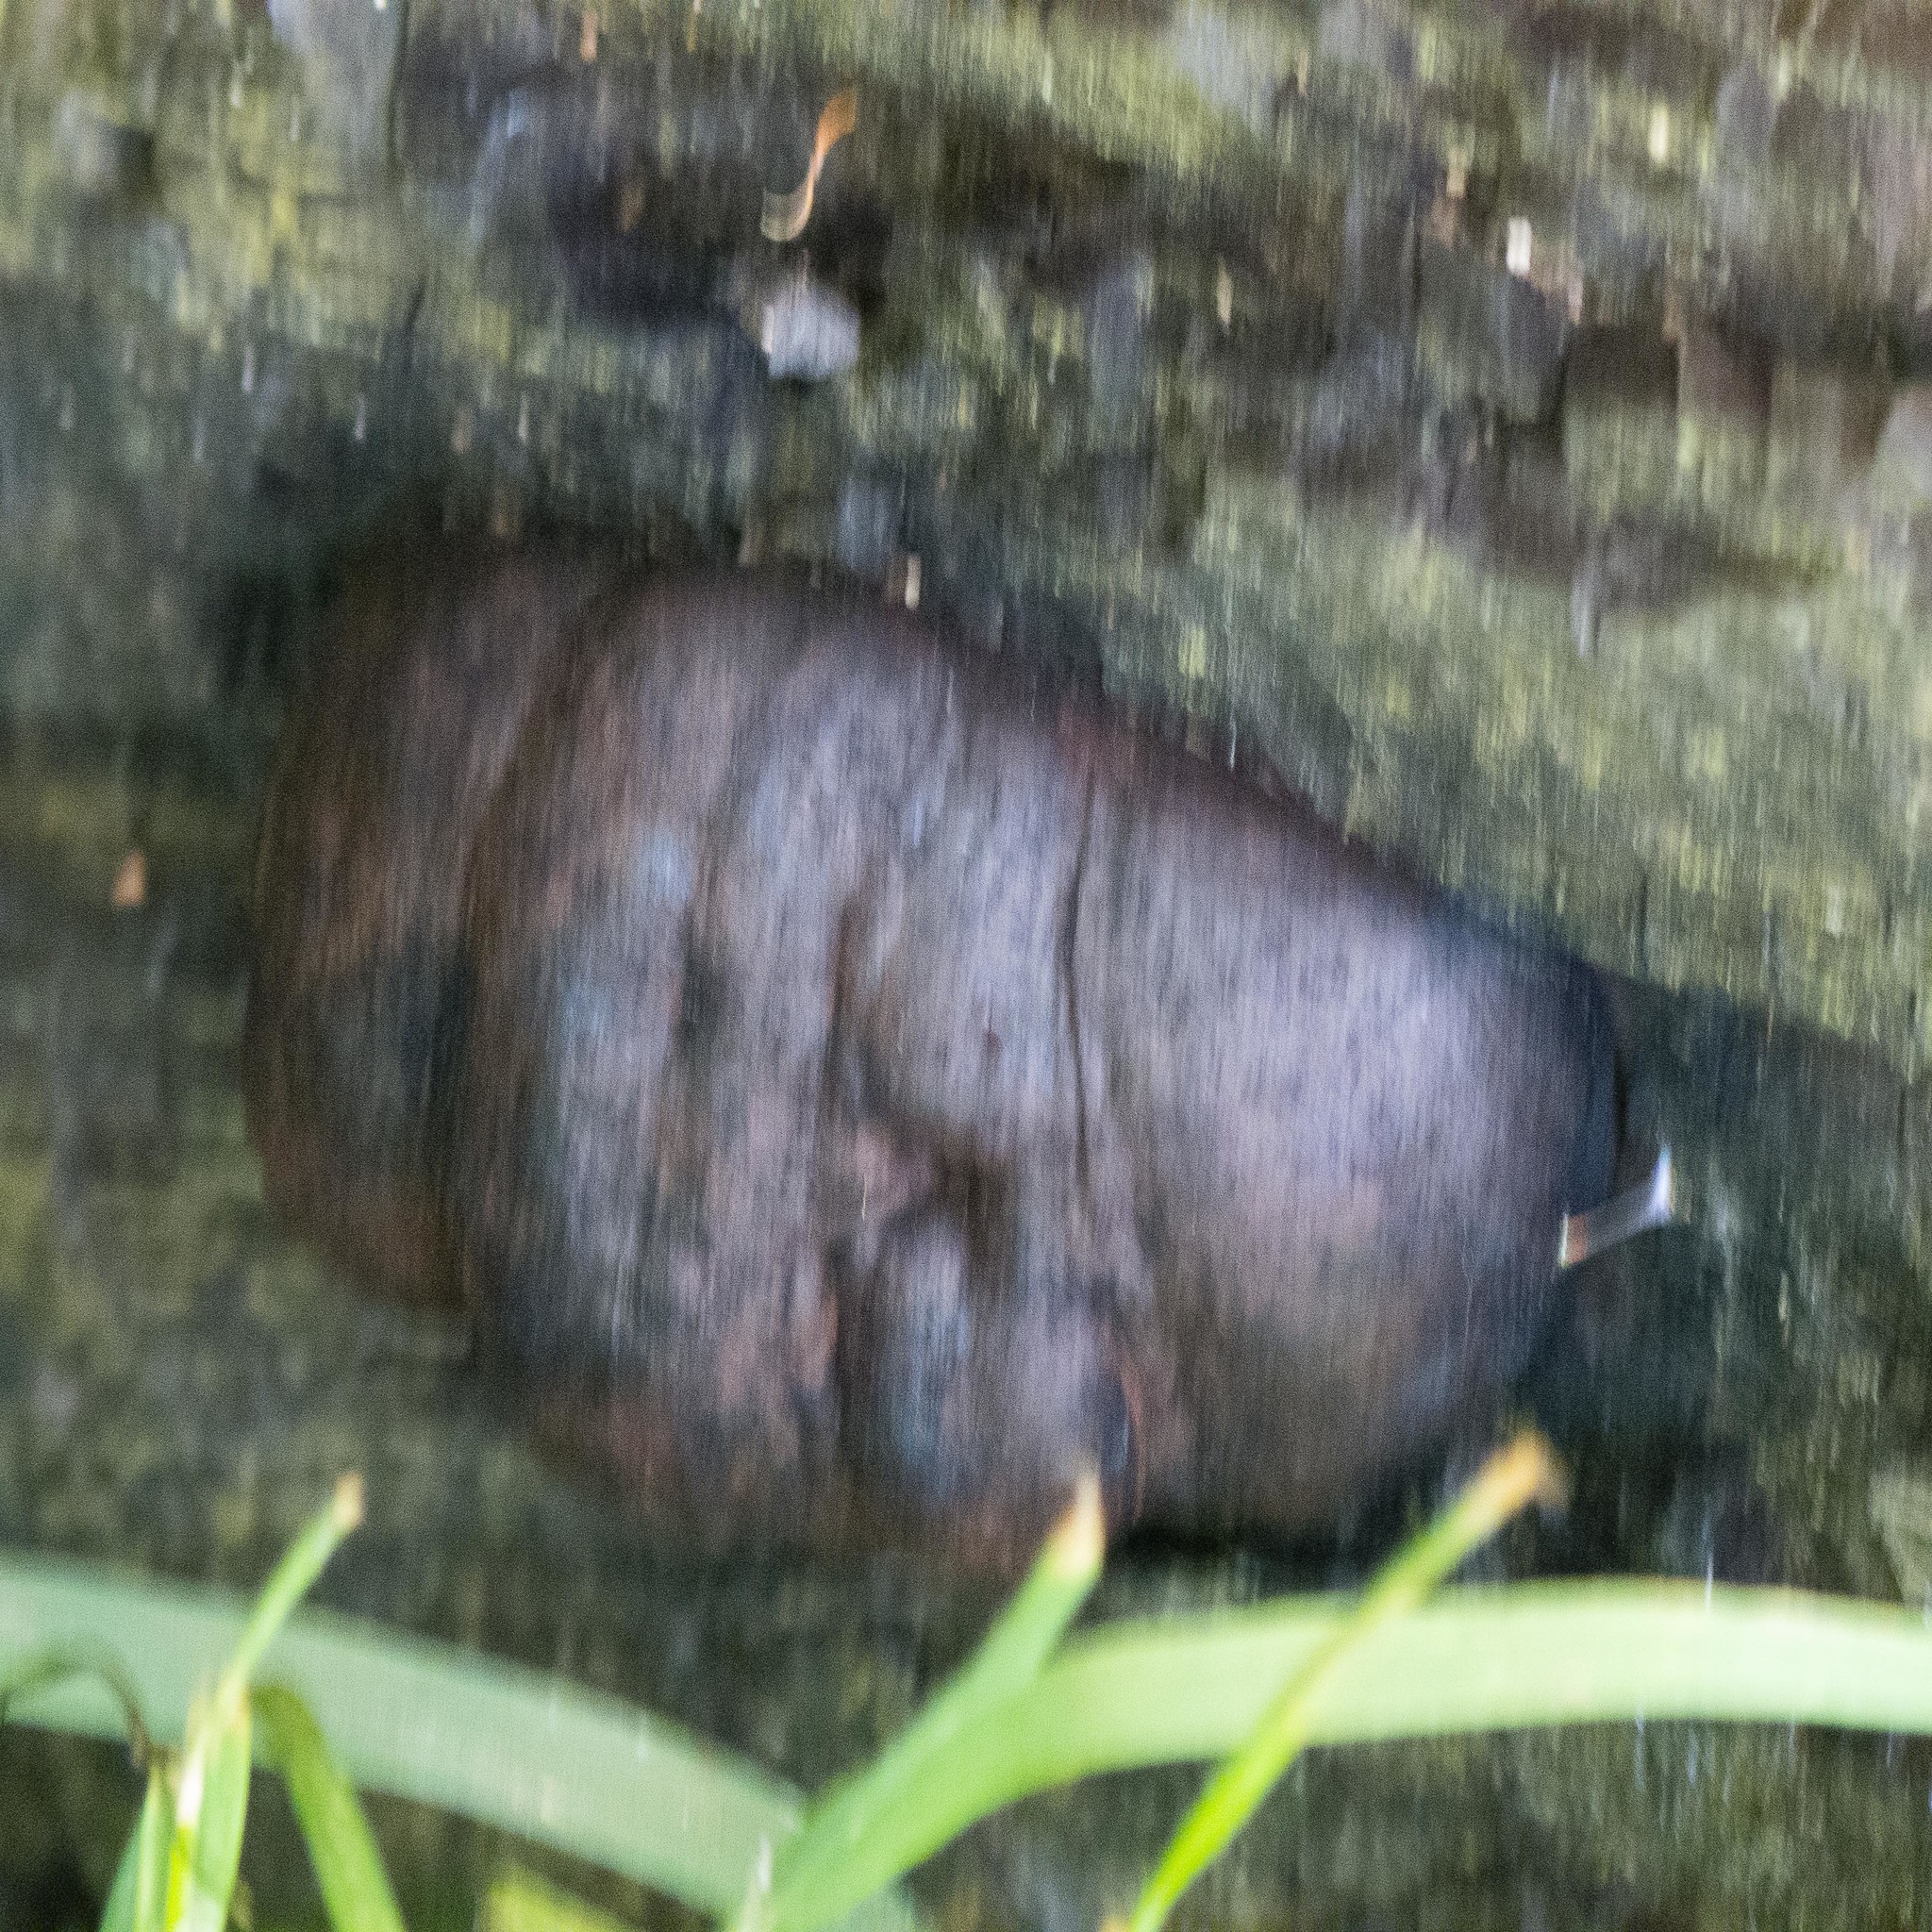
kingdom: Fungi
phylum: Ascomycota
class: Sordariomycetes
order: Xylariales
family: Hypoxylaceae
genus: Daldinia
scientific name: Daldinia concentrica
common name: Cramp balls
